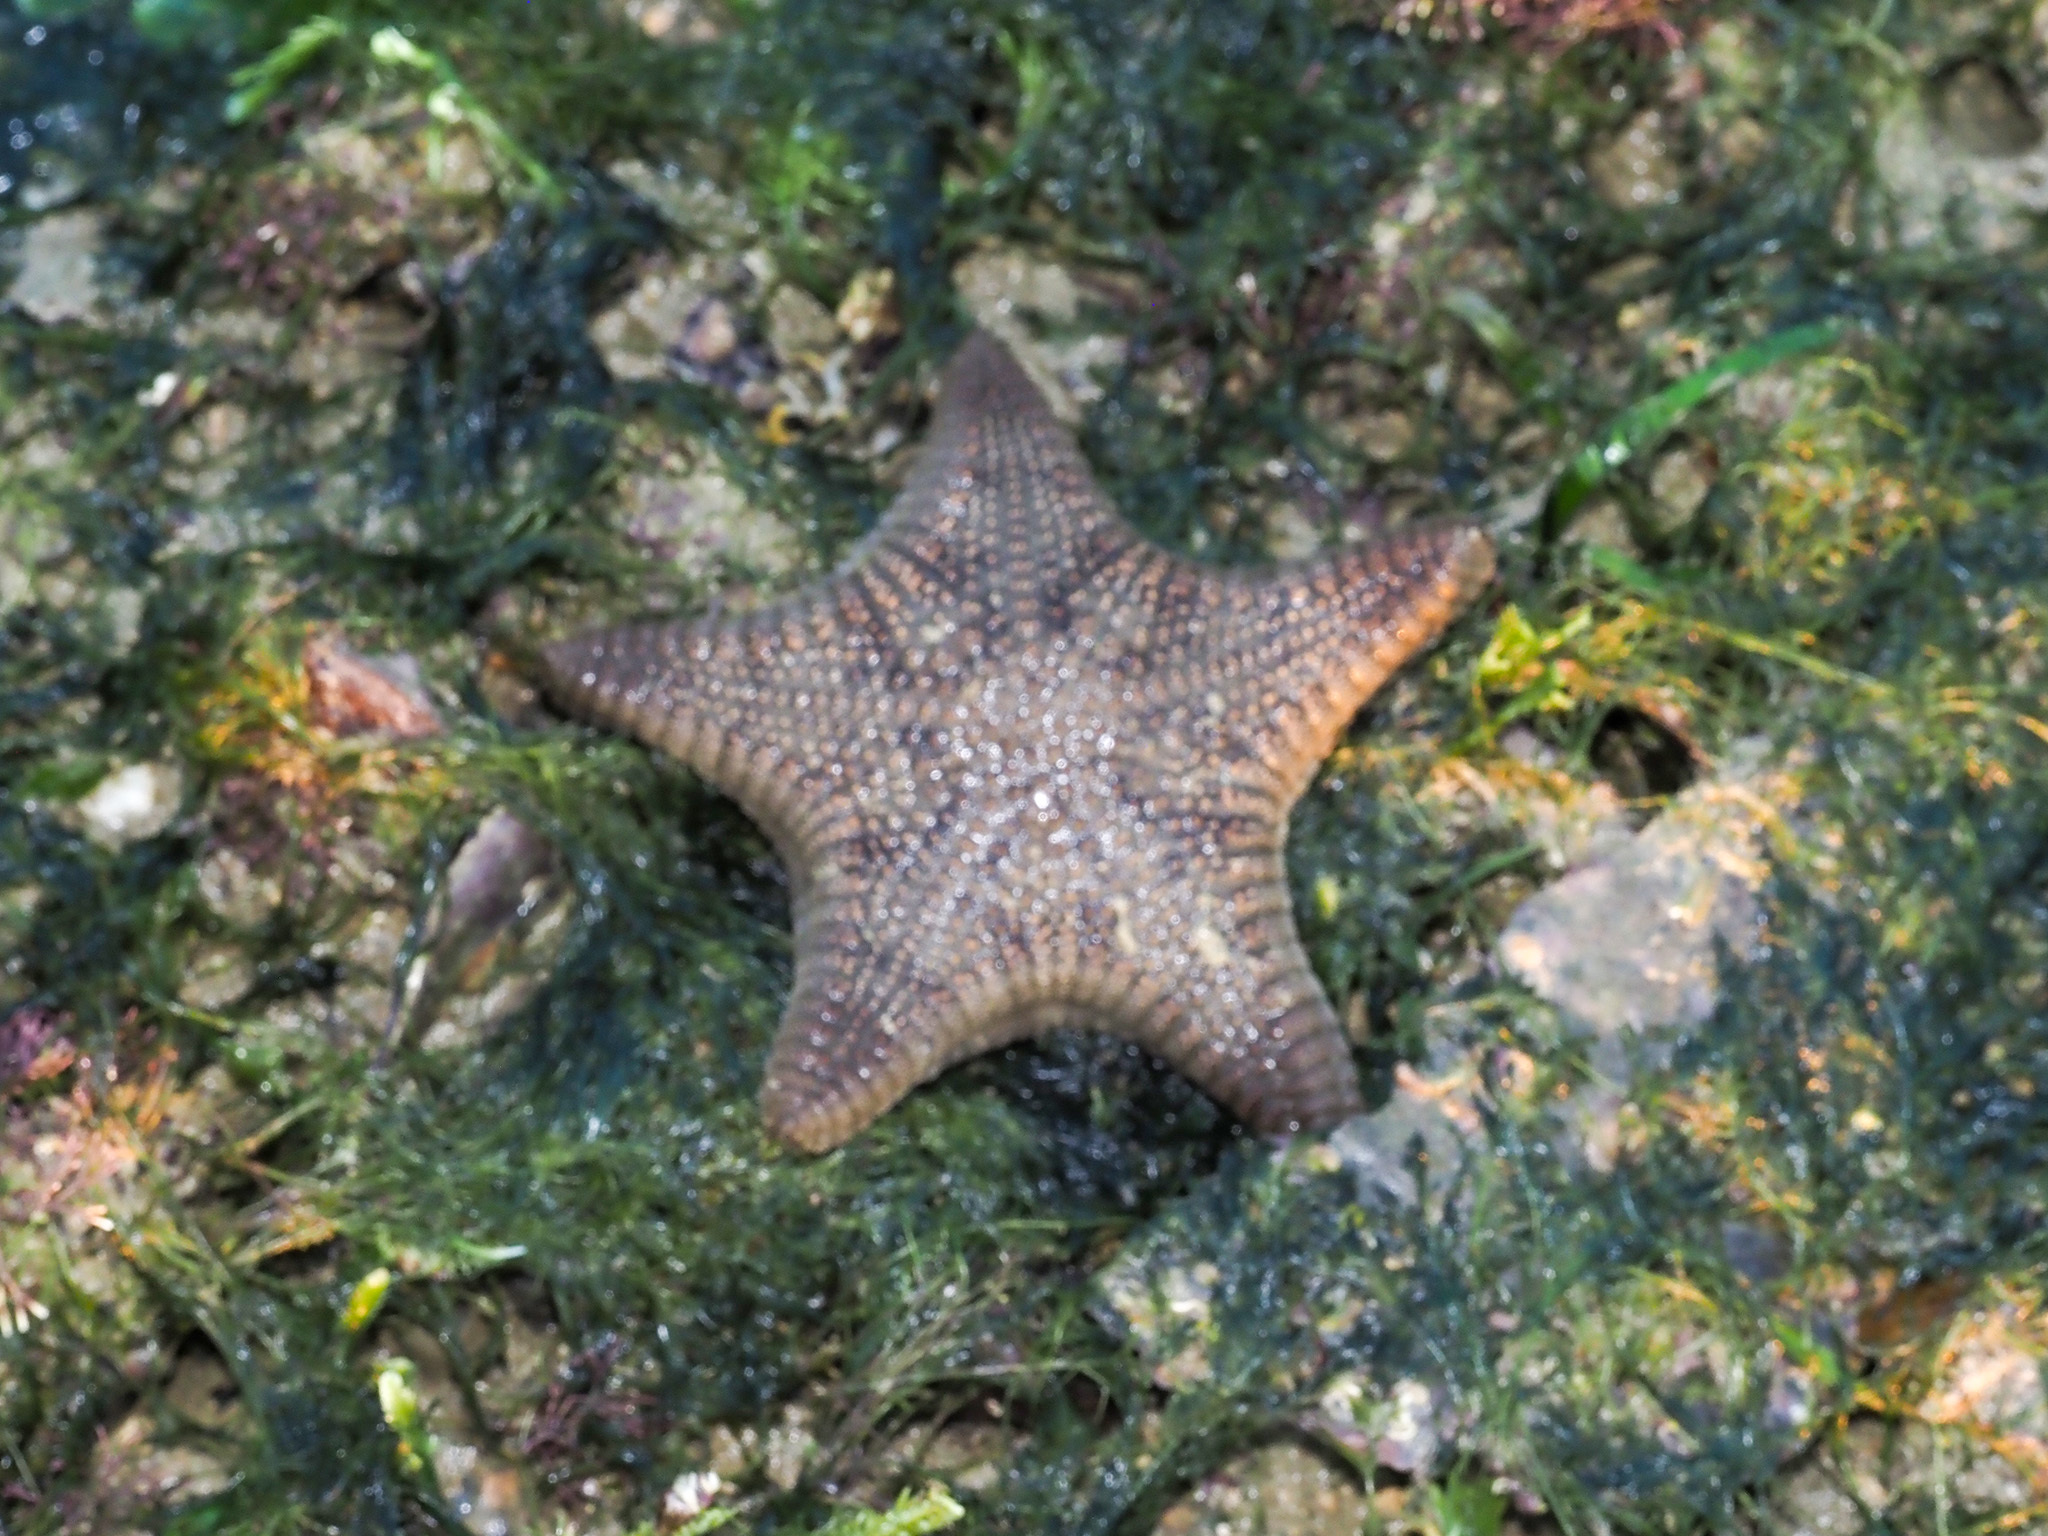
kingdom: Animalia
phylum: Echinodermata
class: Asteroidea
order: Valvatida
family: Goniasteridae
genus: Goniodiscaster
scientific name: Goniodiscaster scaber
